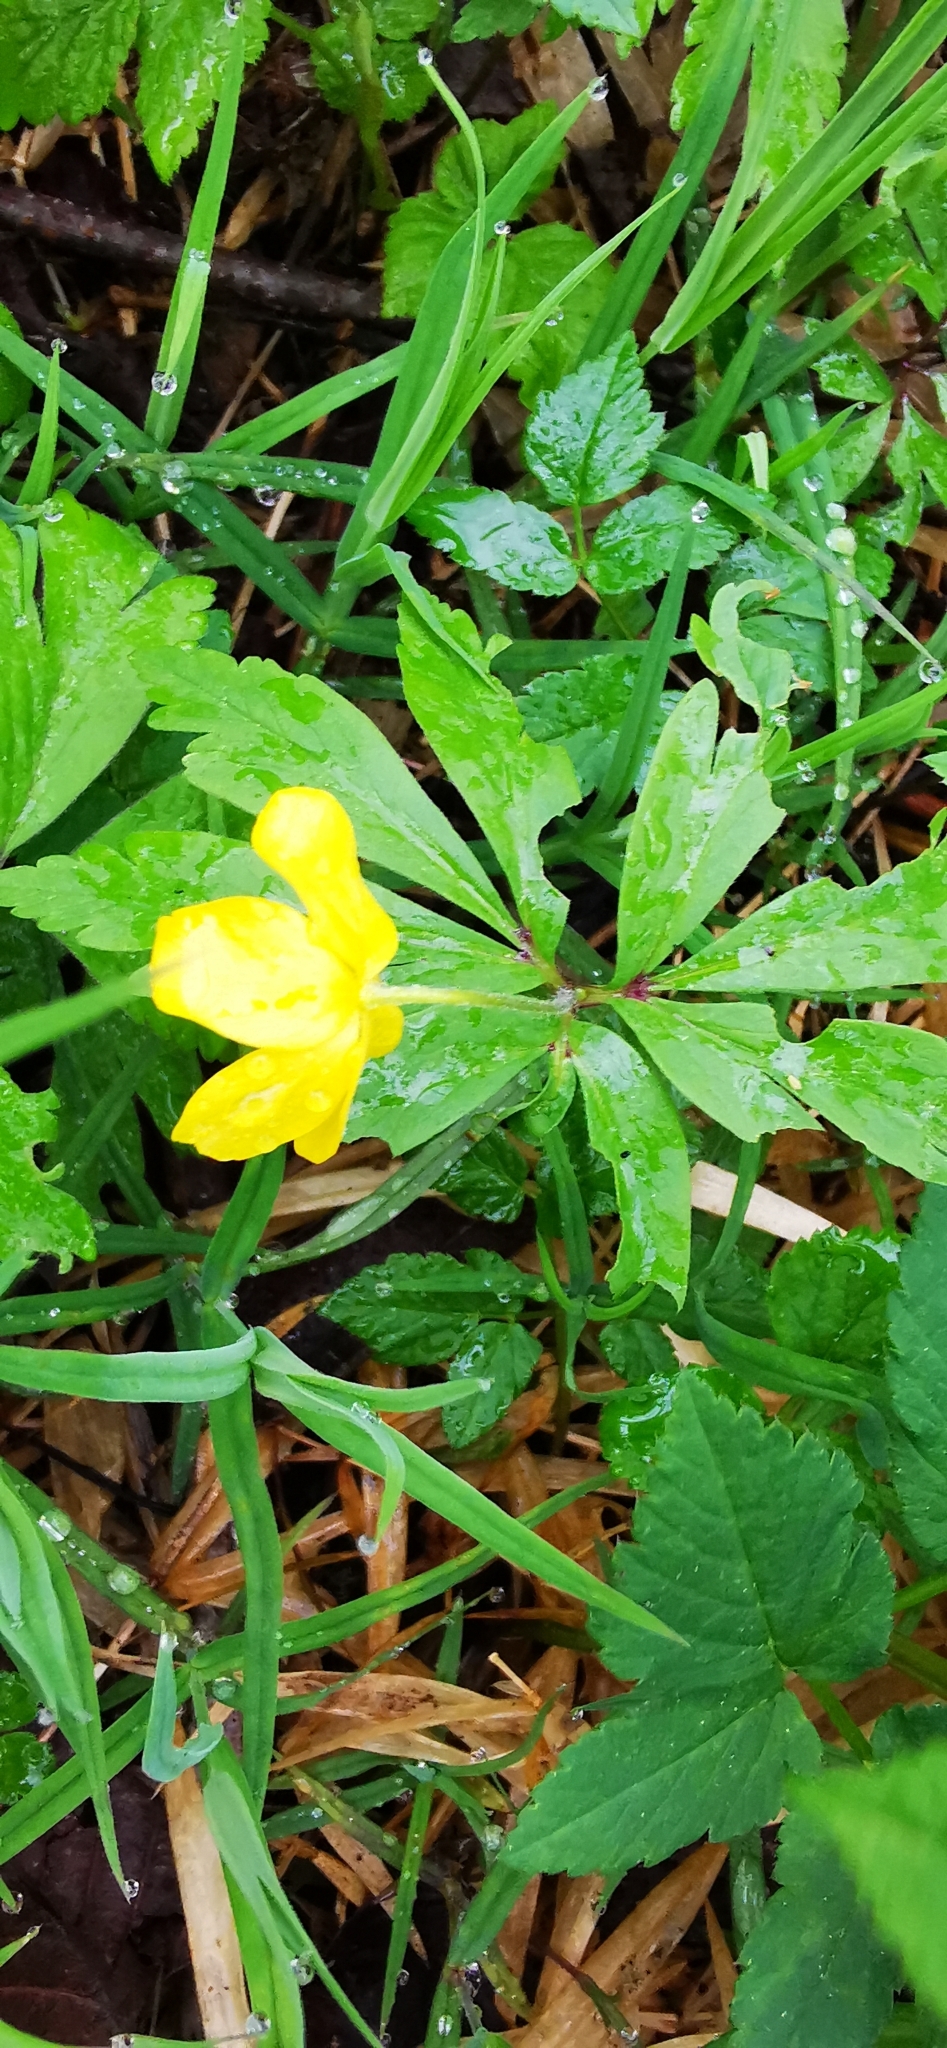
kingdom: Plantae
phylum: Tracheophyta
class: Magnoliopsida
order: Ranunculales
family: Ranunculaceae
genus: Anemone
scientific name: Anemone ranunculoides
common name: Yellow anemone
